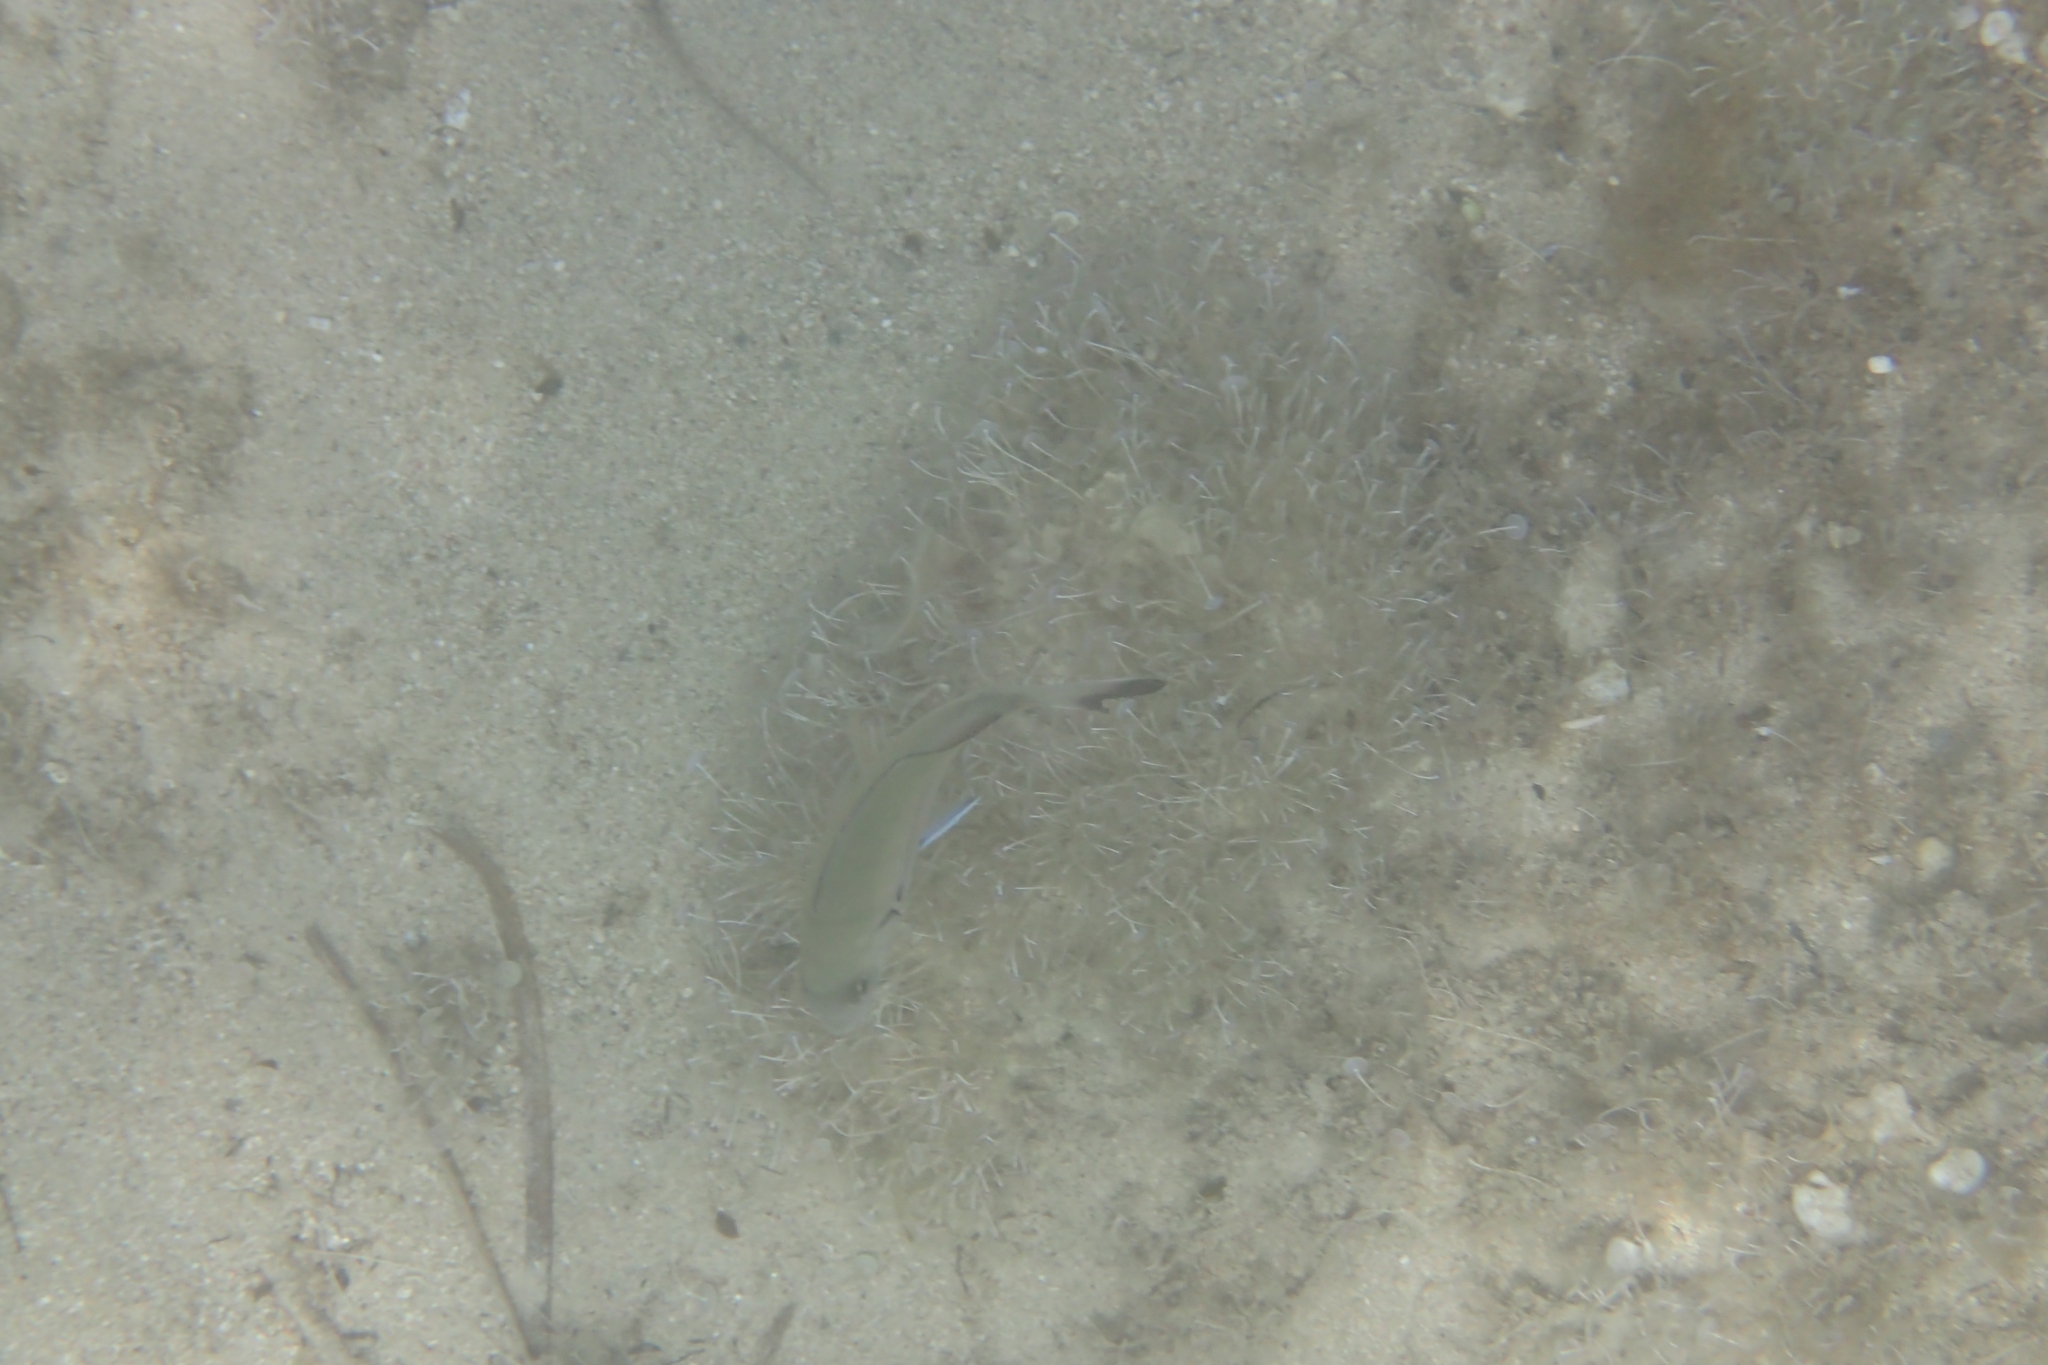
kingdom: Animalia
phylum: Chordata
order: Perciformes
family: Sparidae
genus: Diplodus
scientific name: Diplodus sargus
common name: White seabream
